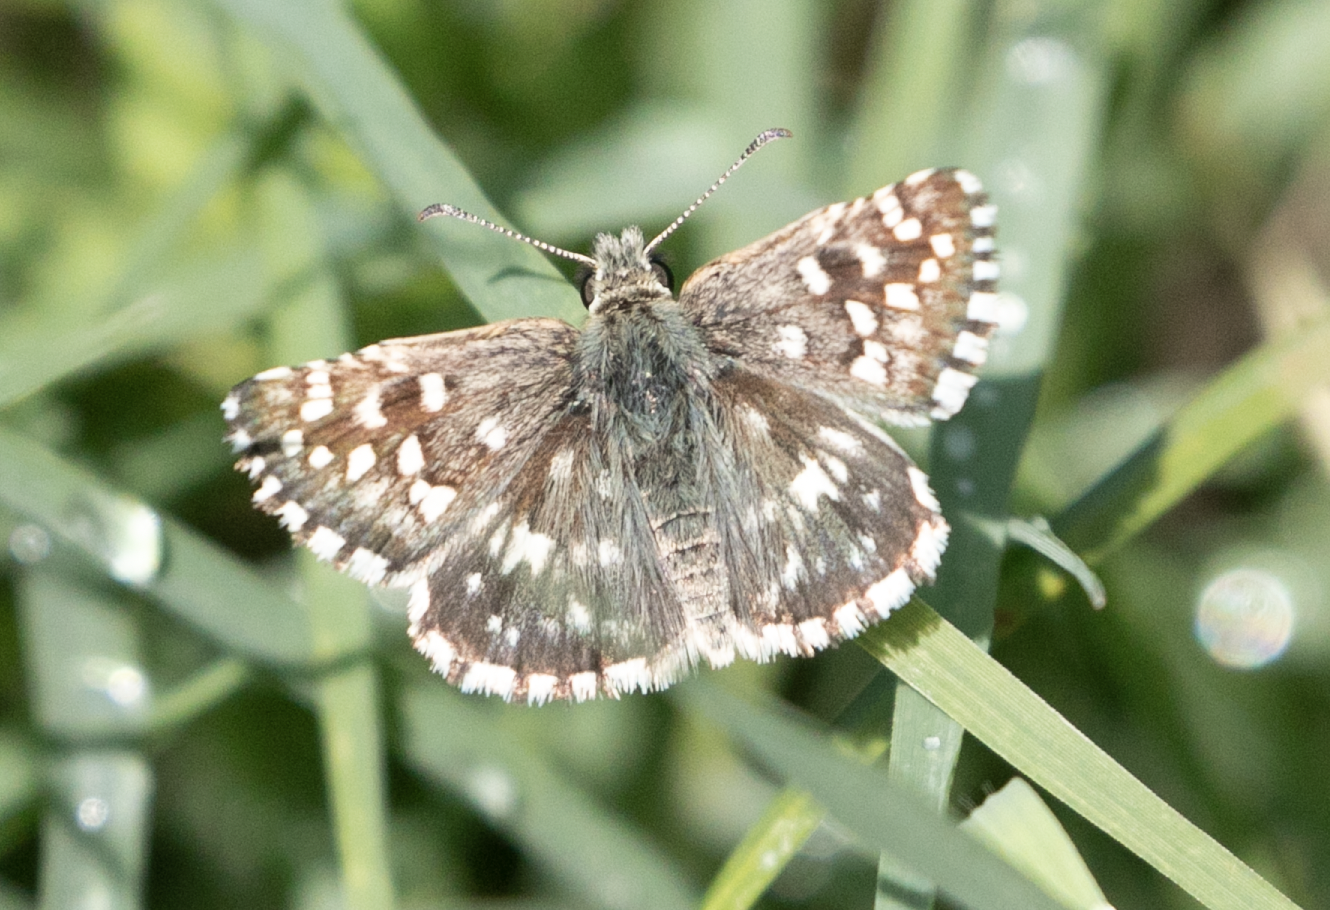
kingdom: Animalia
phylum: Arthropoda
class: Insecta
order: Lepidoptera
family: Hesperiidae
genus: Pyrgus
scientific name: Pyrgus malvoides
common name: Southern grizzled skipper
